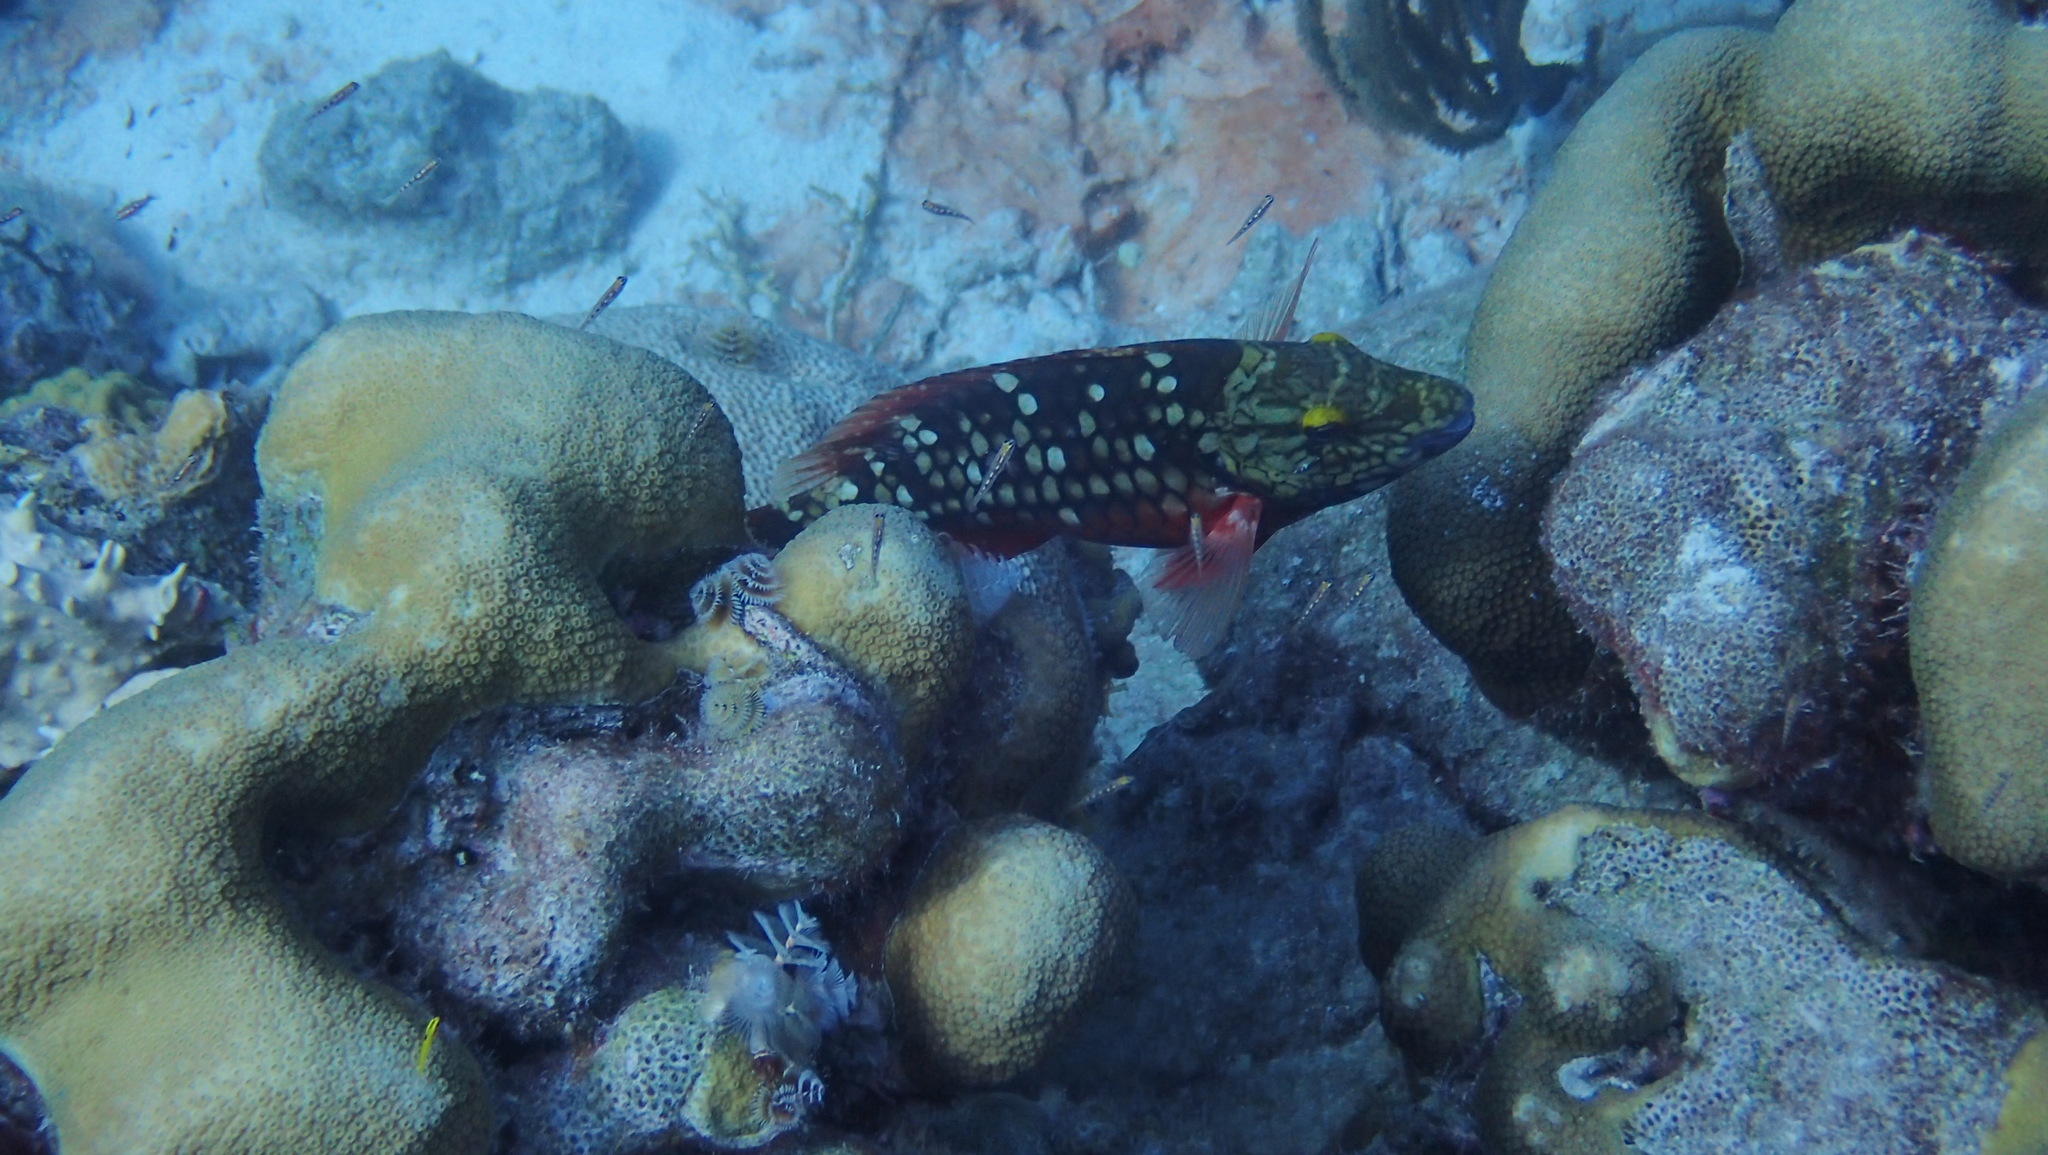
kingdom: Animalia
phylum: Chordata
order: Perciformes
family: Scaridae
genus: Sparisoma
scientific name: Sparisoma viride
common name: Stoplight parrotfish
